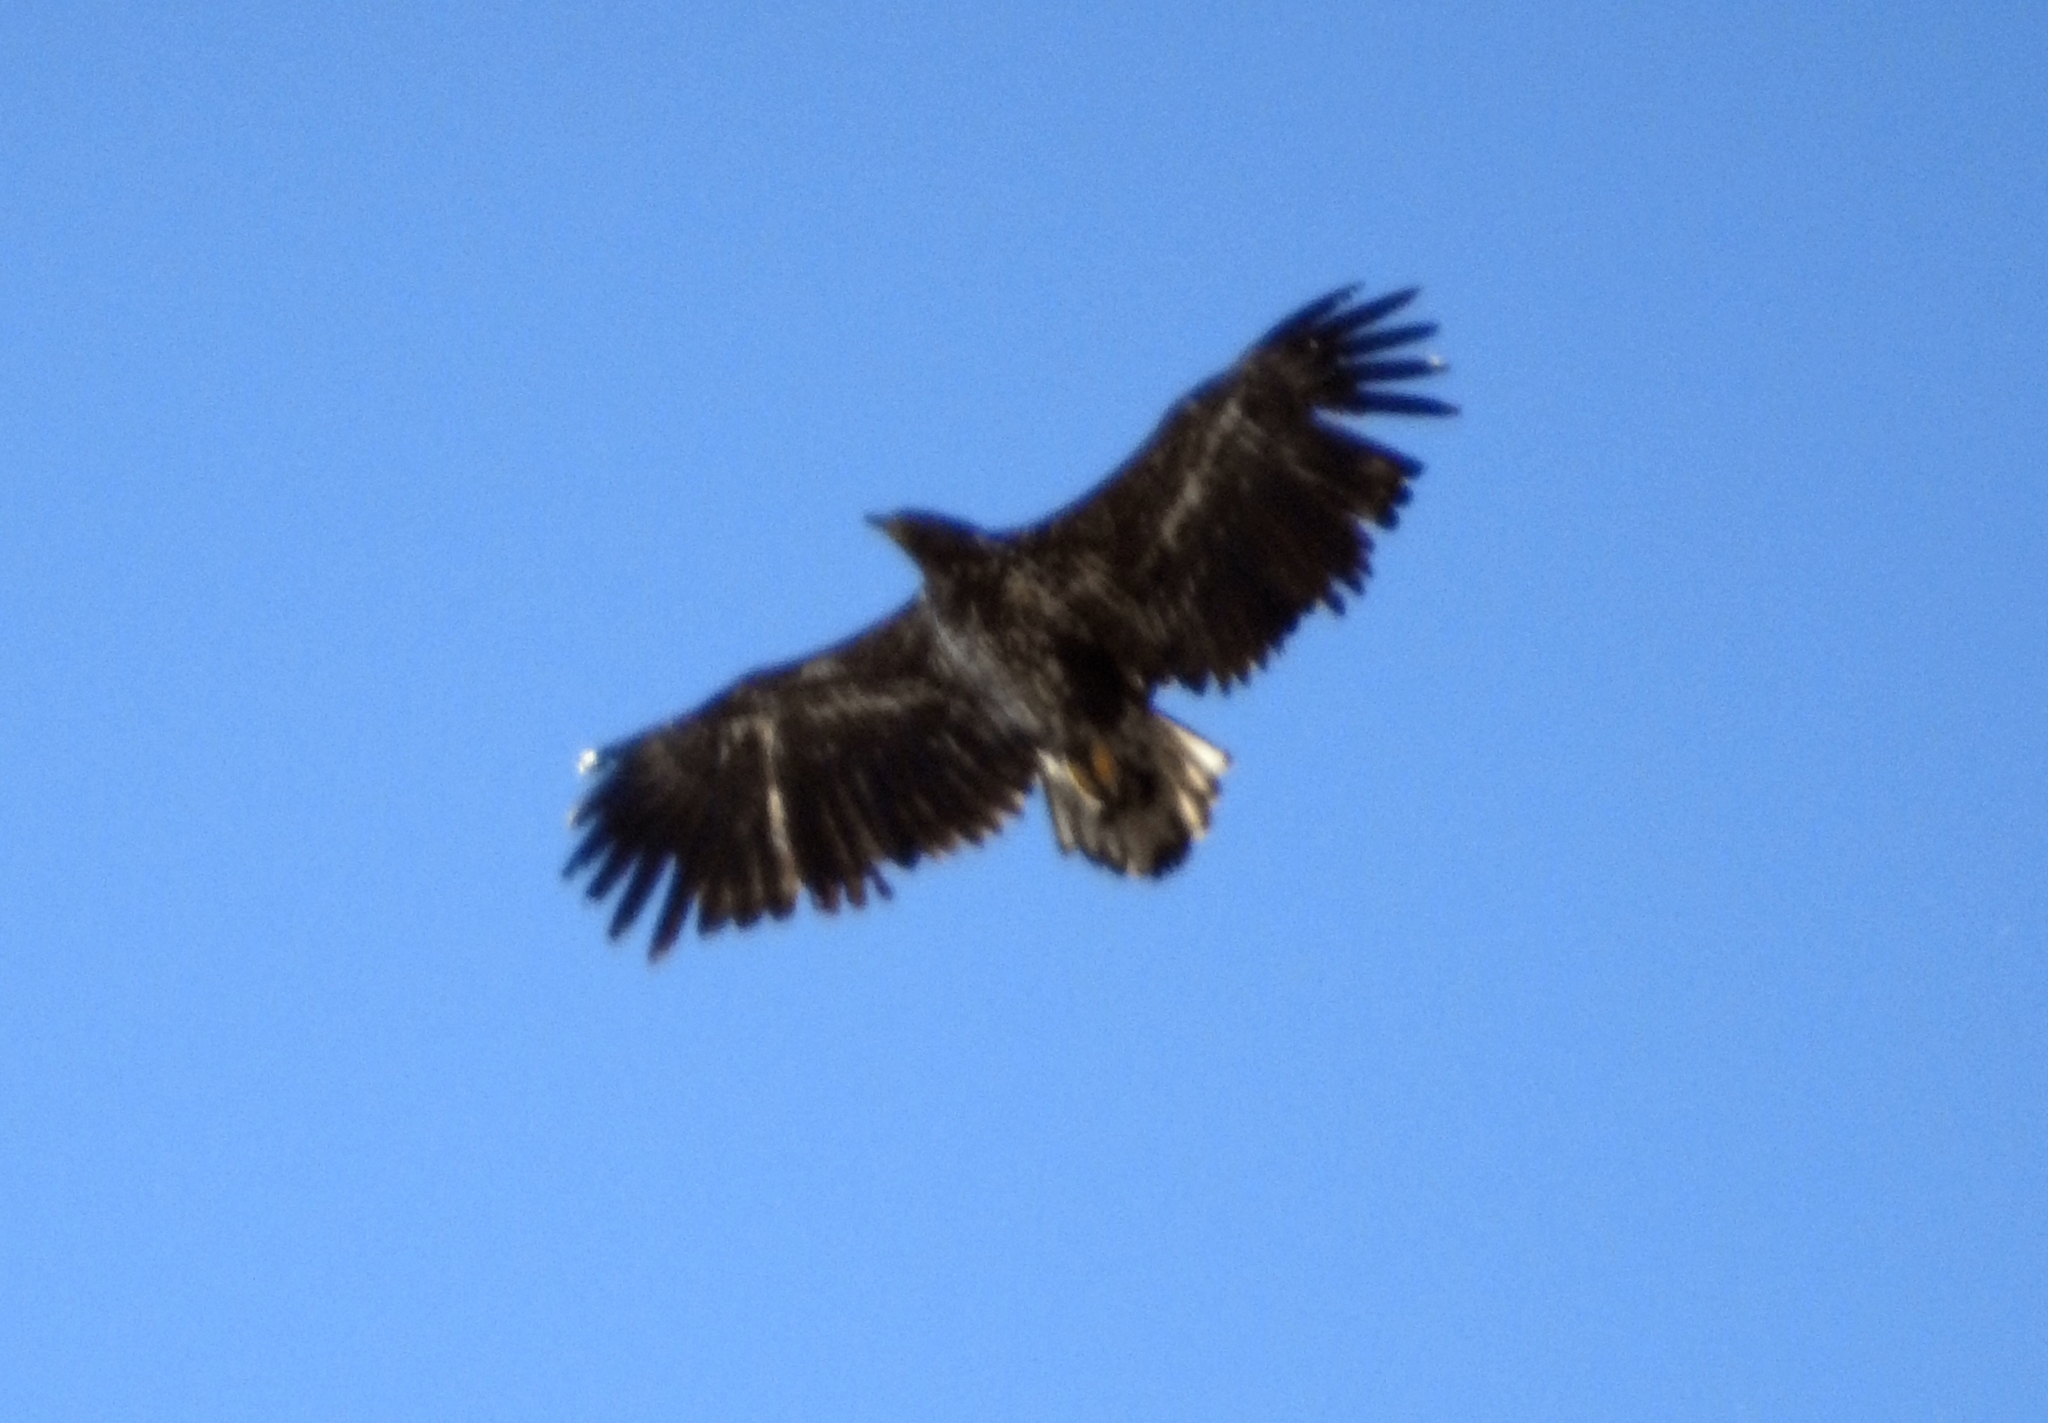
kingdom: Animalia
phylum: Chordata
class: Aves
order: Accipitriformes
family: Accipitridae
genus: Haliaeetus
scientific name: Haliaeetus albicilla
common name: White-tailed eagle
